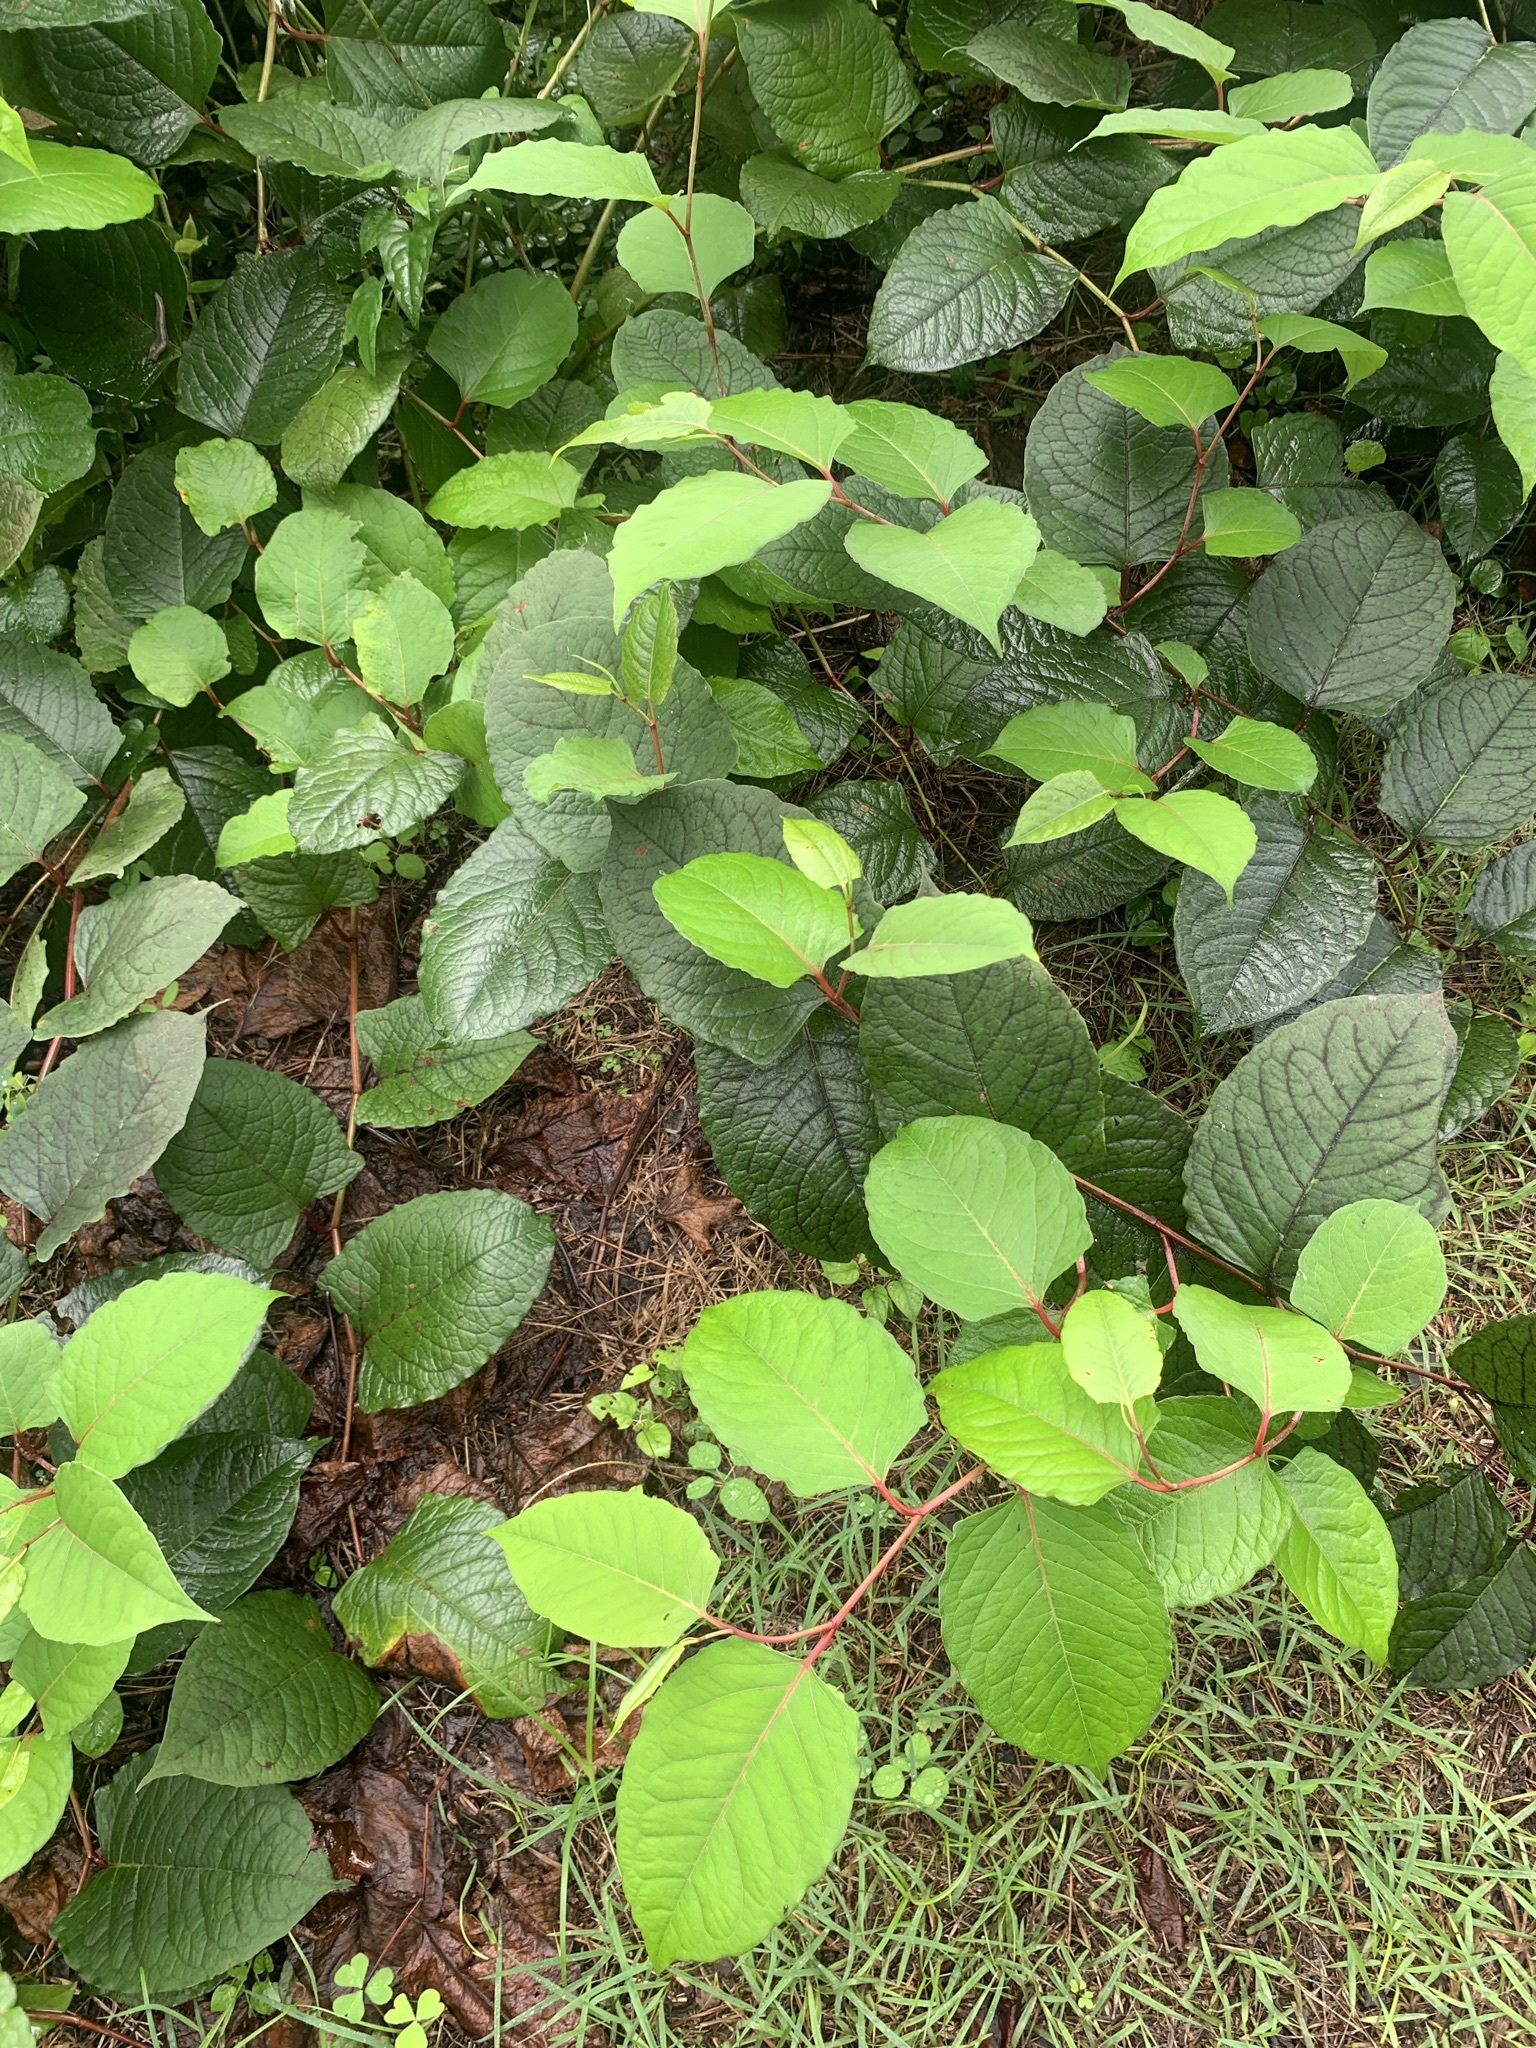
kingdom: Plantae
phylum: Tracheophyta
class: Magnoliopsida
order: Caryophyllales
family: Polygonaceae
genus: Reynoutria
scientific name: Reynoutria japonica
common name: Japanese knotweed
